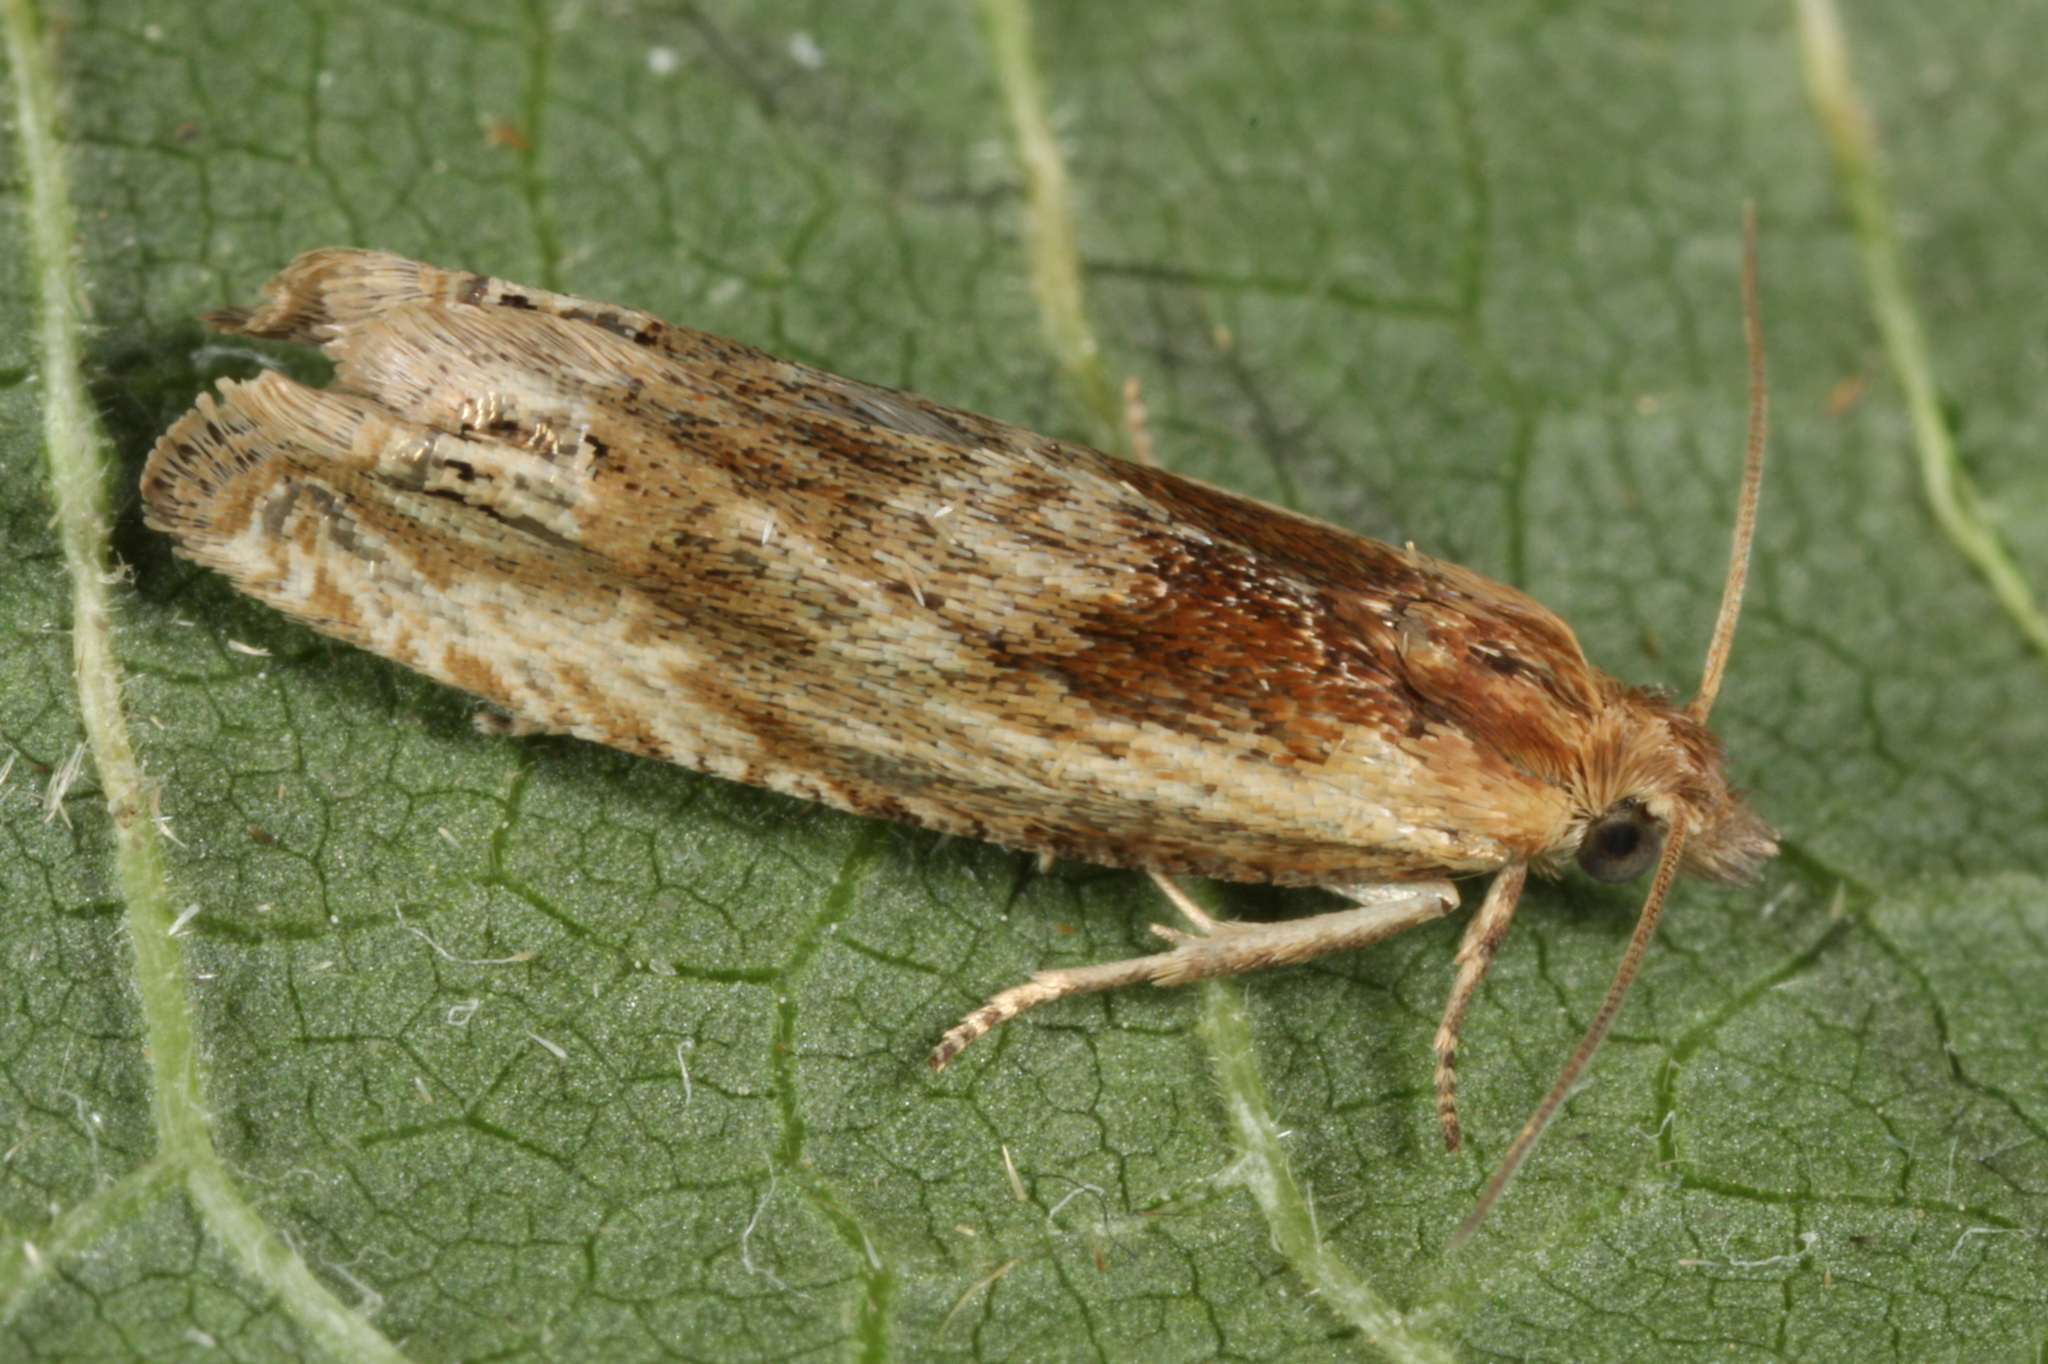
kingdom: Animalia
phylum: Arthropoda
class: Insecta
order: Lepidoptera
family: Tortricidae
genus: Eucosma
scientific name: Eucosma cana
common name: Hoary belle
